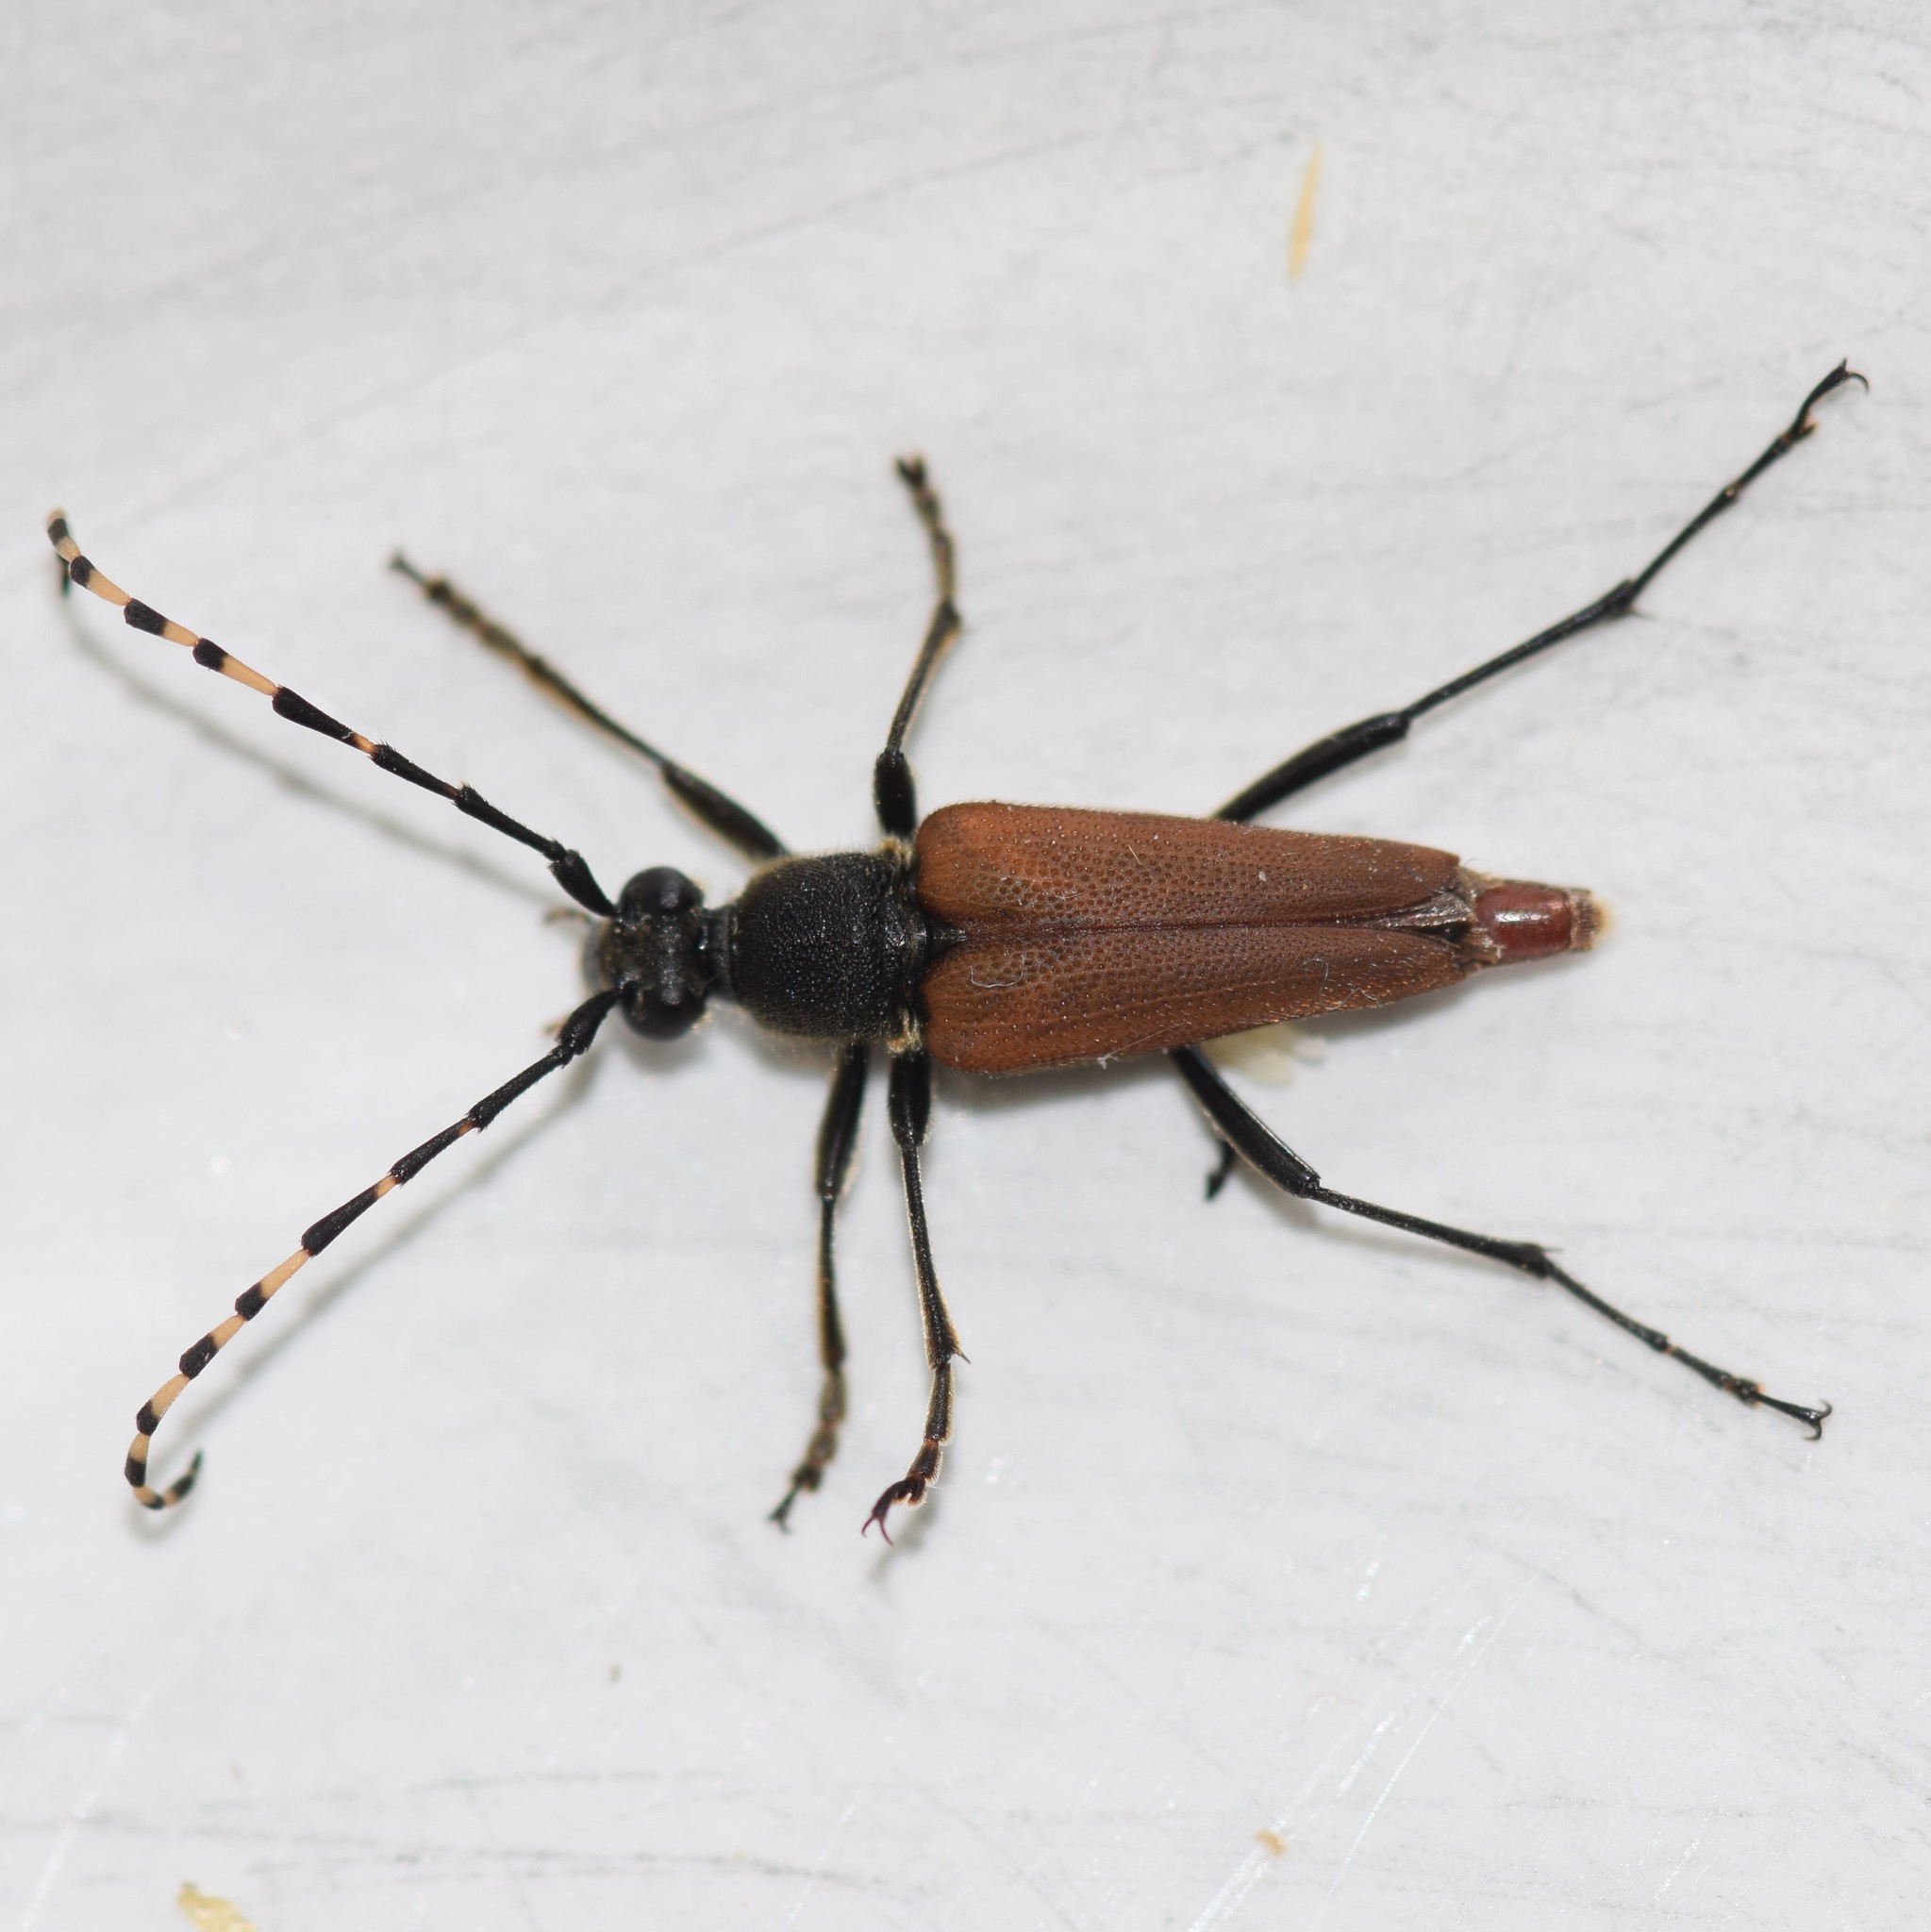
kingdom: Animalia
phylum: Arthropoda
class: Insecta
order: Coleoptera
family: Cerambycidae
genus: Brachyleptura
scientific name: Brachyleptura rubrica
